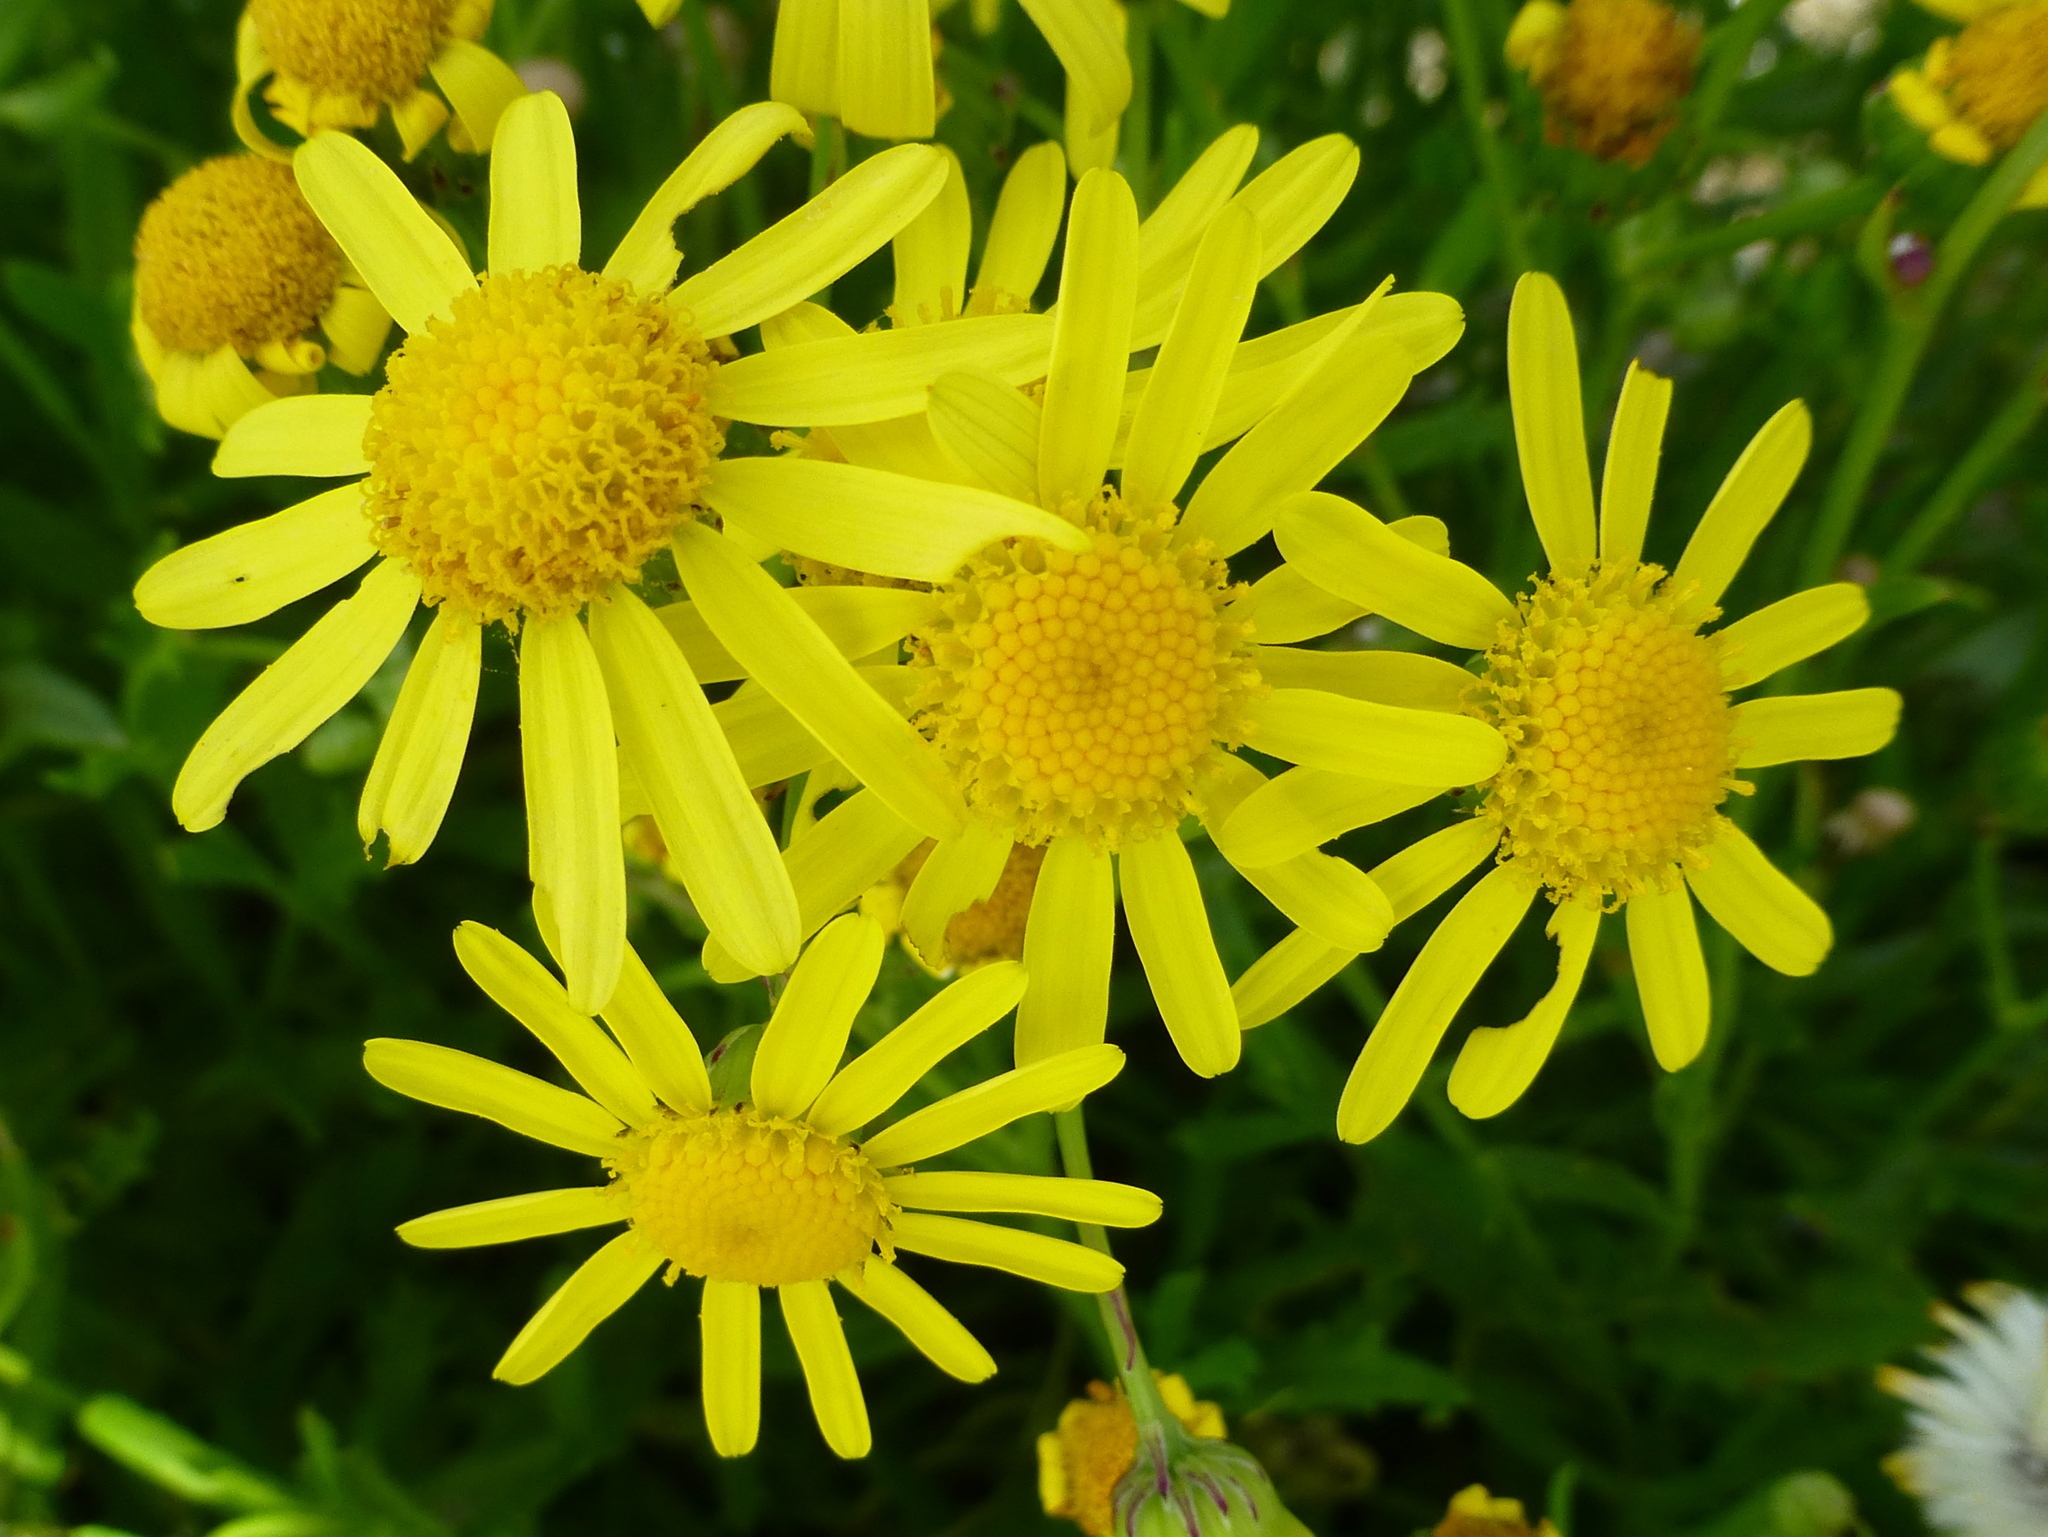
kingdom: Plantae
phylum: Tracheophyta
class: Magnoliopsida
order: Asterales
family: Asteraceae
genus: Senecio
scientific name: Senecio skirrhodon
